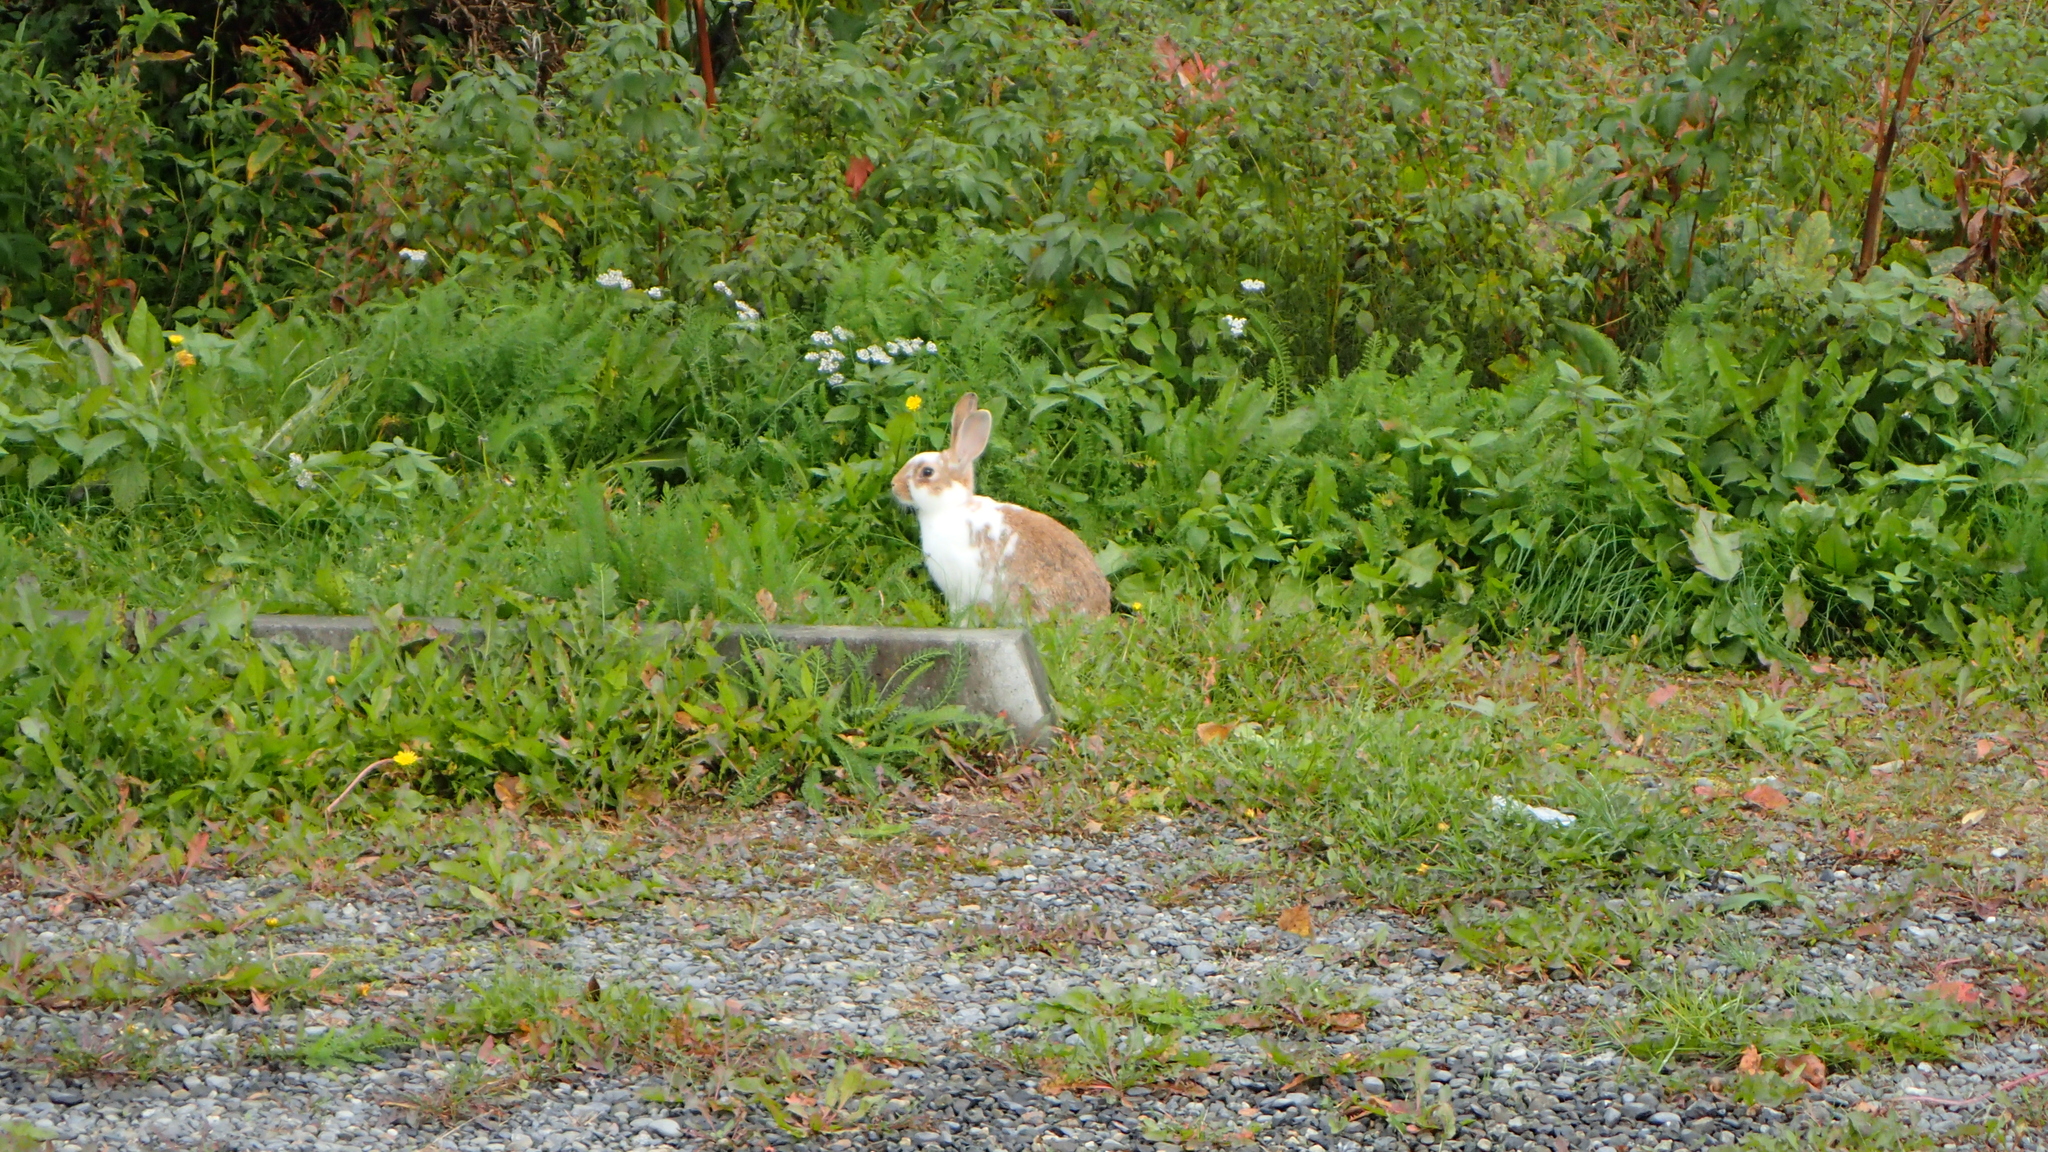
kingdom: Animalia
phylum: Chordata
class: Mammalia
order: Lagomorpha
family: Leporidae
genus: Oryctolagus
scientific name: Oryctolagus cuniculus
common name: European rabbit
